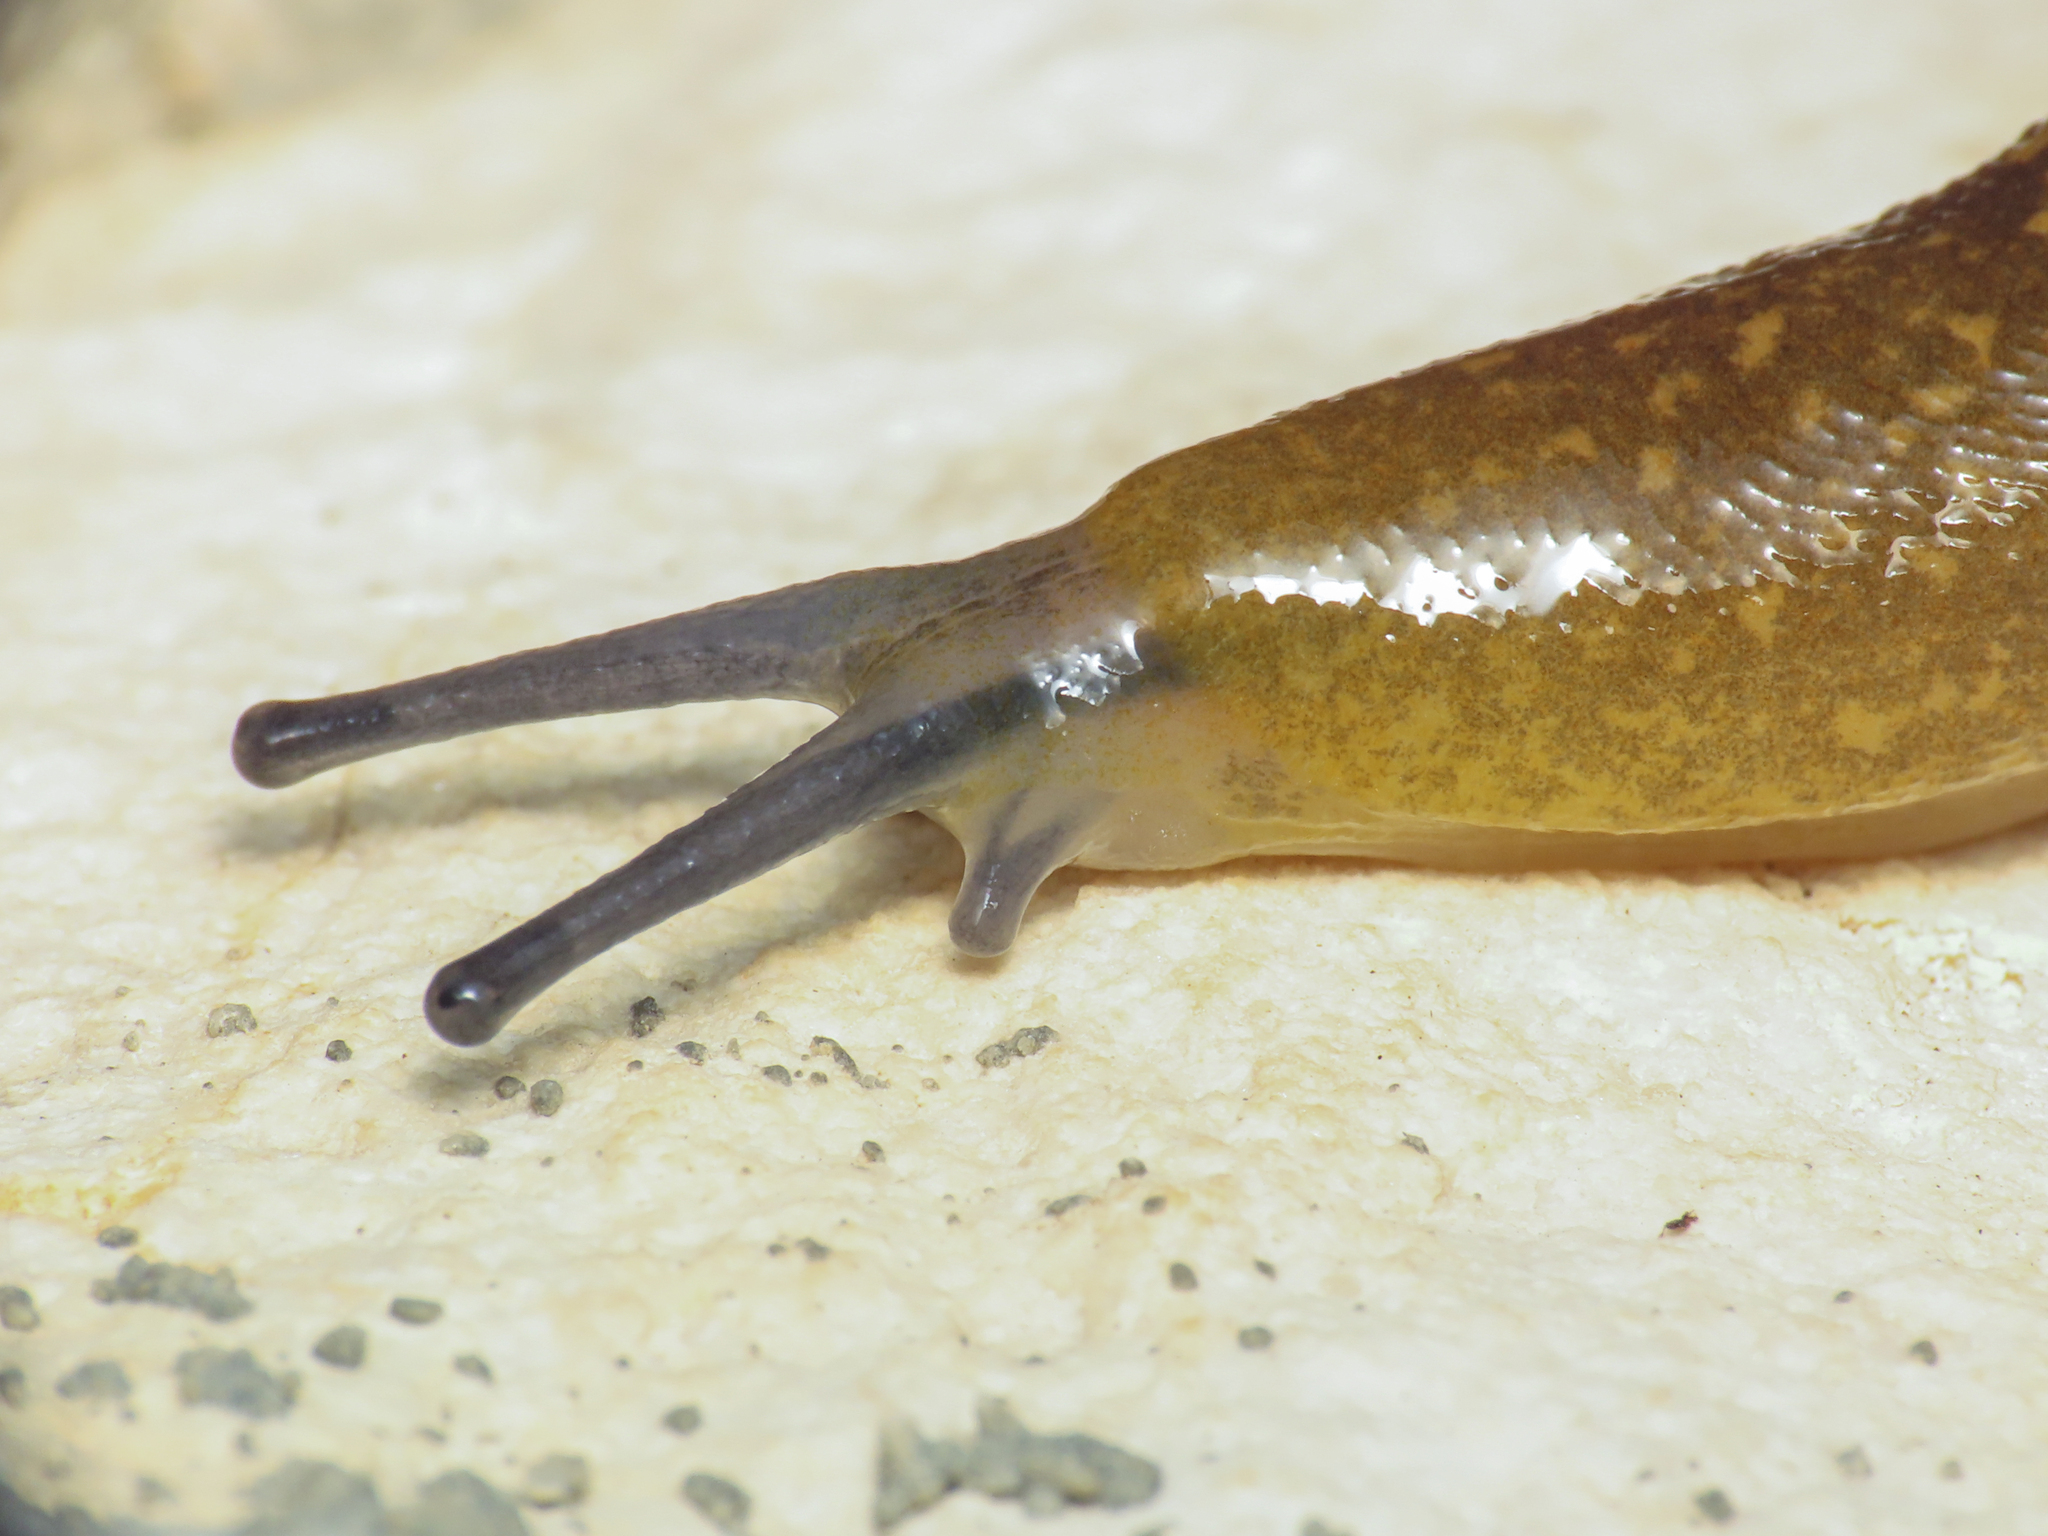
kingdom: Animalia
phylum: Mollusca
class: Gastropoda
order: Stylommatophora
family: Limacidae
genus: Limacus
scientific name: Limacus flavus
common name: Yellow gardenslug
